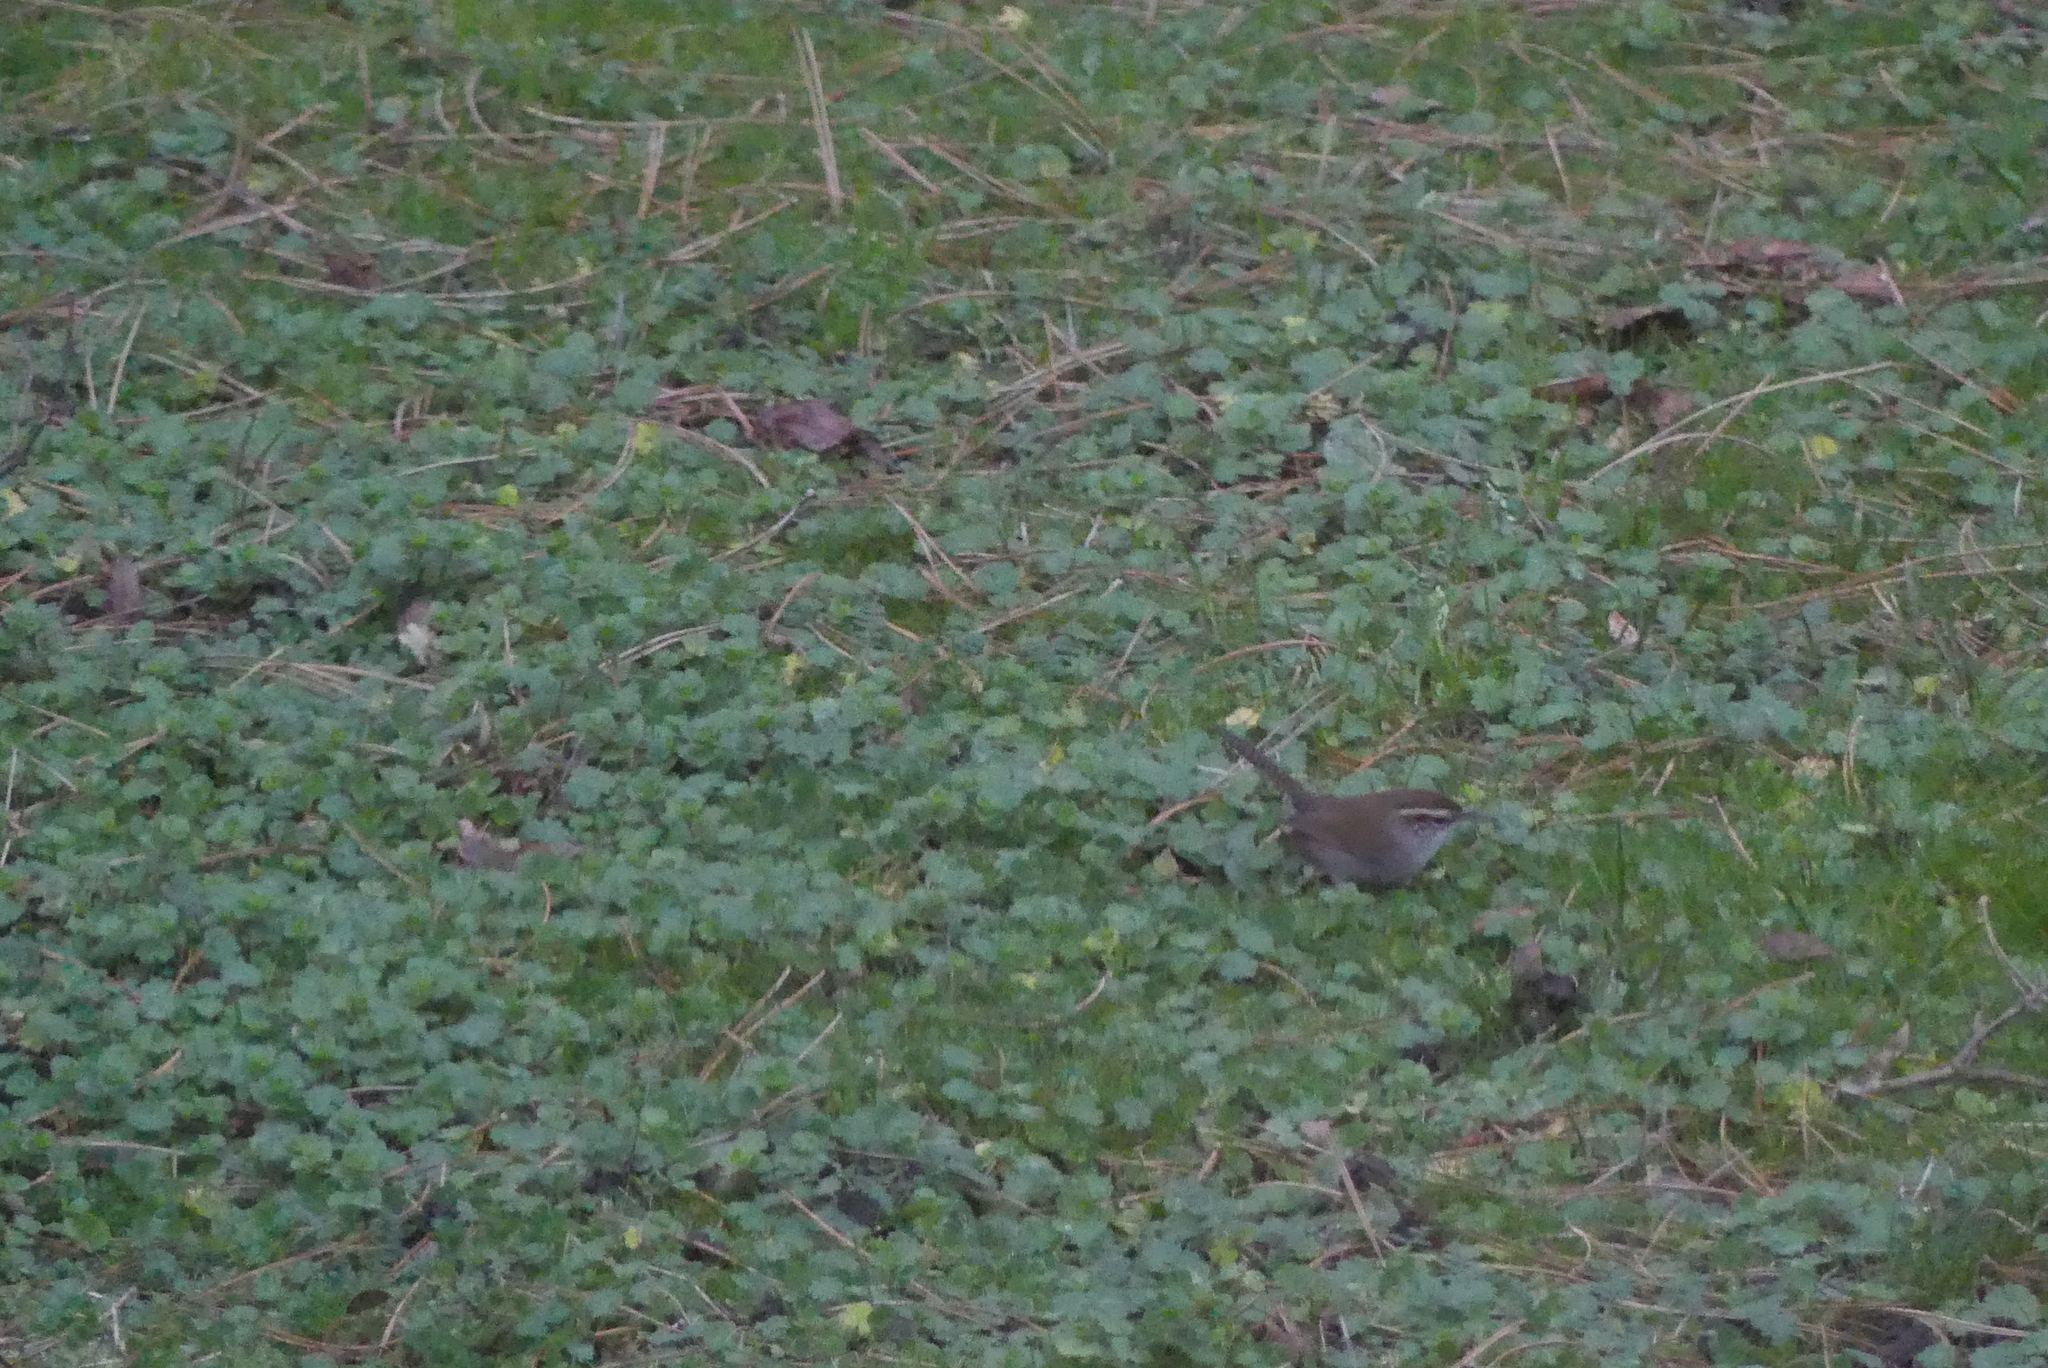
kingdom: Animalia
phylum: Chordata
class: Aves
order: Passeriformes
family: Troglodytidae
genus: Thryomanes
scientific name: Thryomanes bewickii
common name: Bewick's wren
